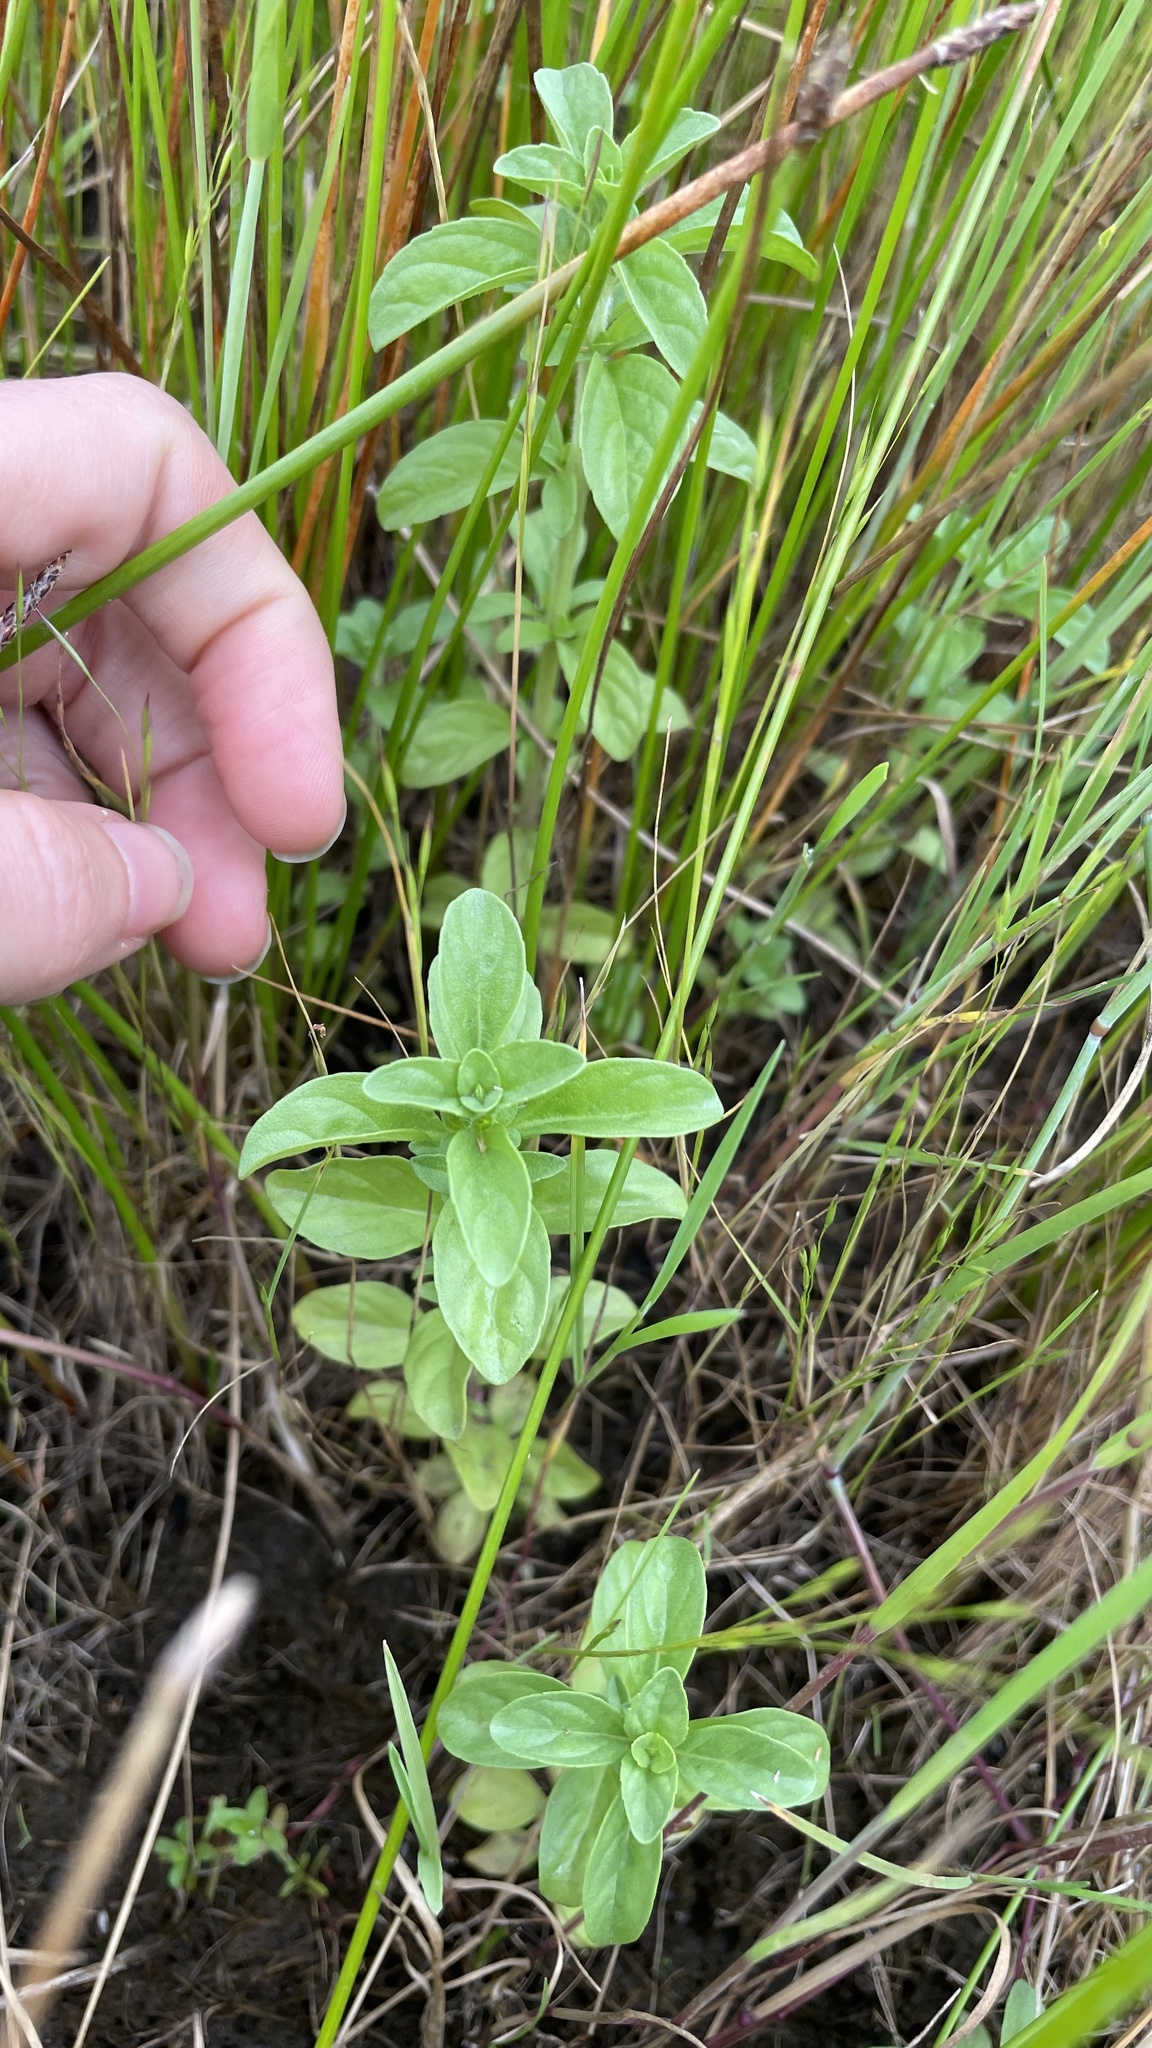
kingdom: Plantae
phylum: Tracheophyta
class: Magnoliopsida
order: Lamiales
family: Lamiaceae
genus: Mentha
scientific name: Mentha pulegium
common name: Pennyroyal
